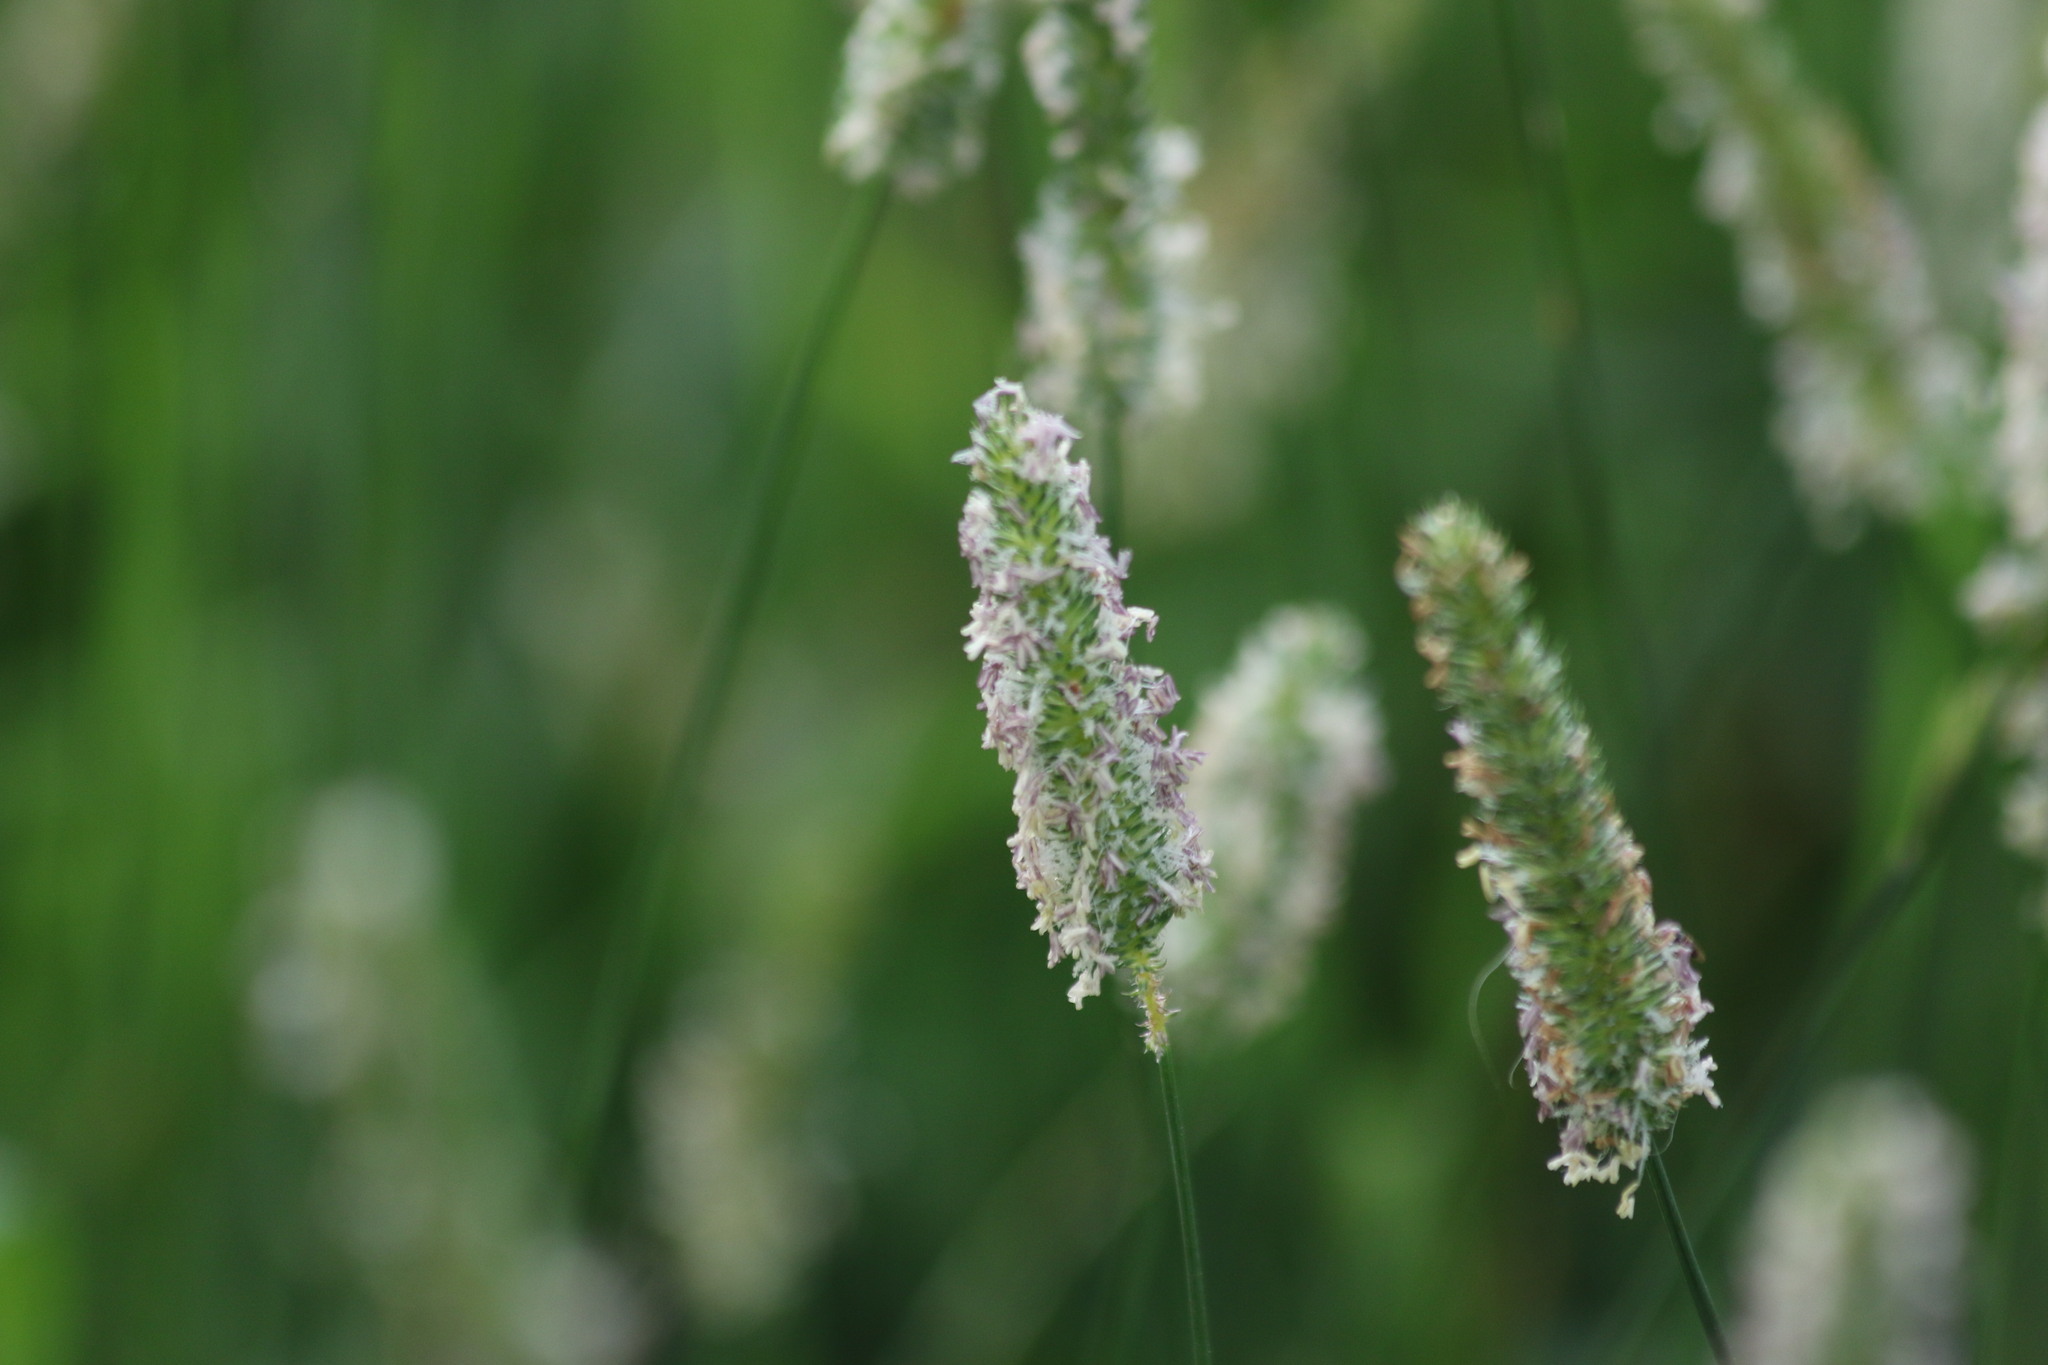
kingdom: Plantae
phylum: Tracheophyta
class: Liliopsida
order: Poales
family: Poaceae
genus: Phleum
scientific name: Phleum pratense
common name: Timothy grass
